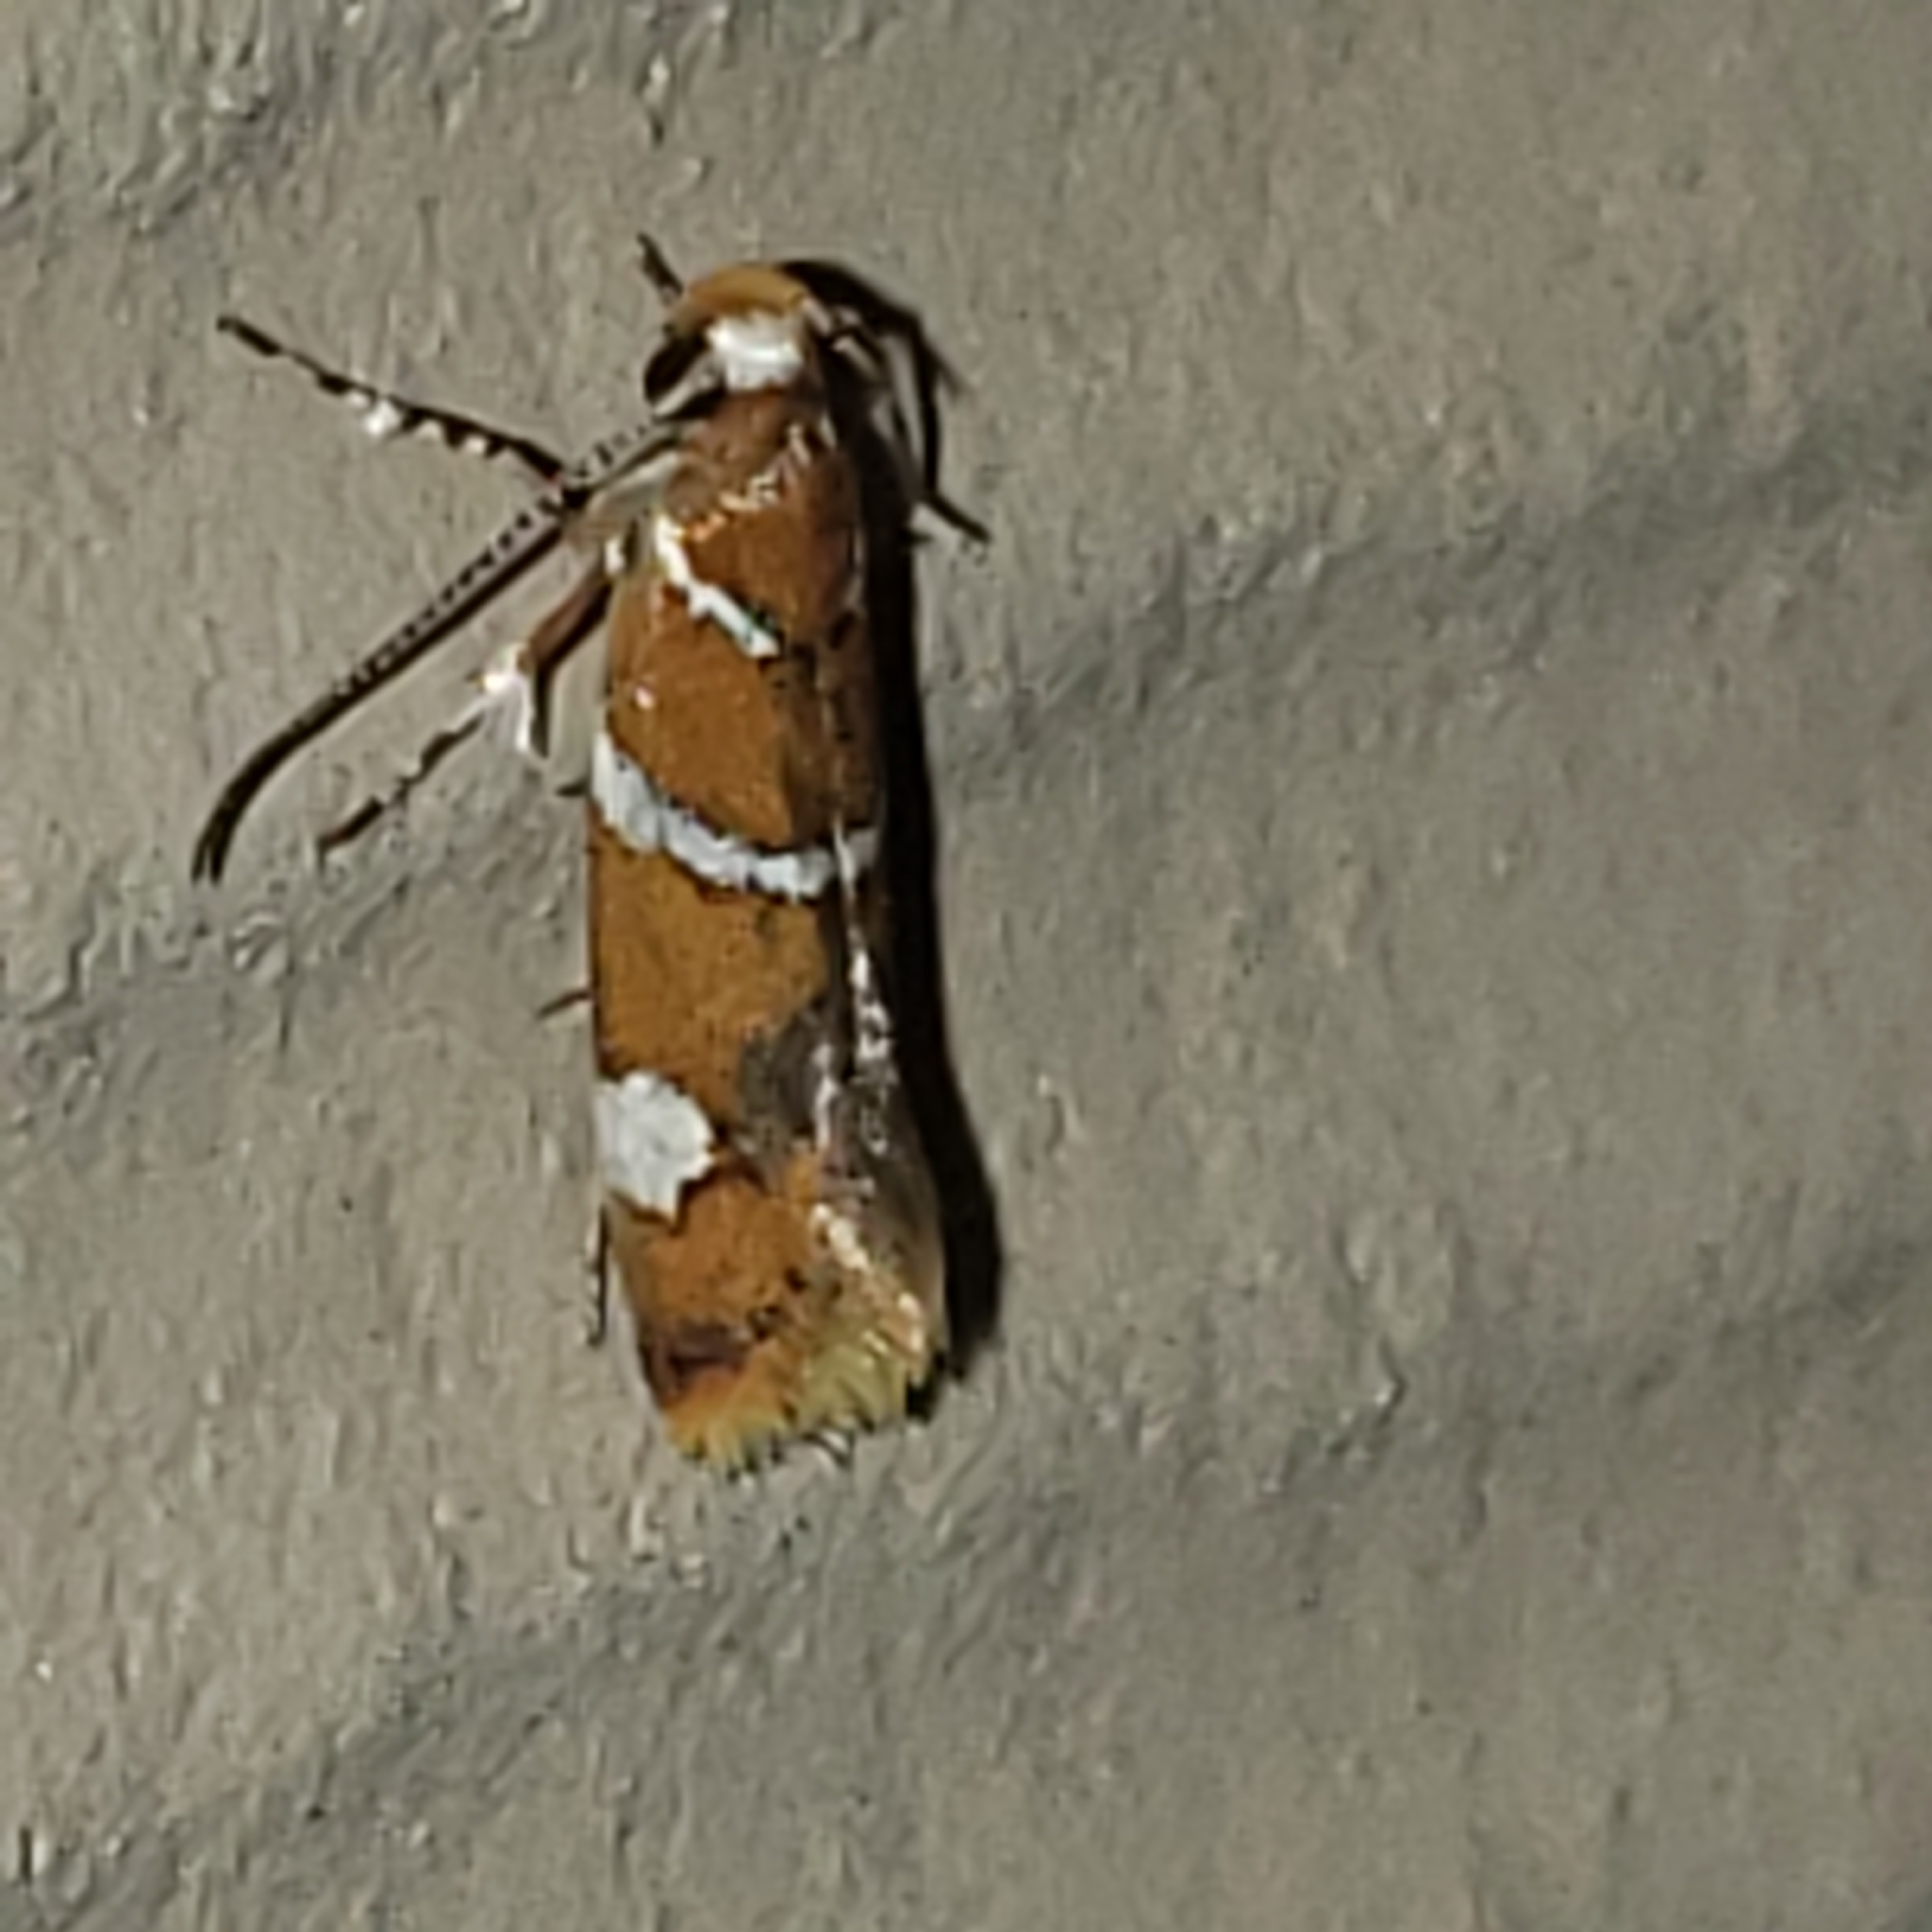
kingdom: Animalia
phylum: Arthropoda
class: Insecta
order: Lepidoptera
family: Oecophoridae
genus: Promalactis
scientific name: Promalactis suzukiella
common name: Moth
